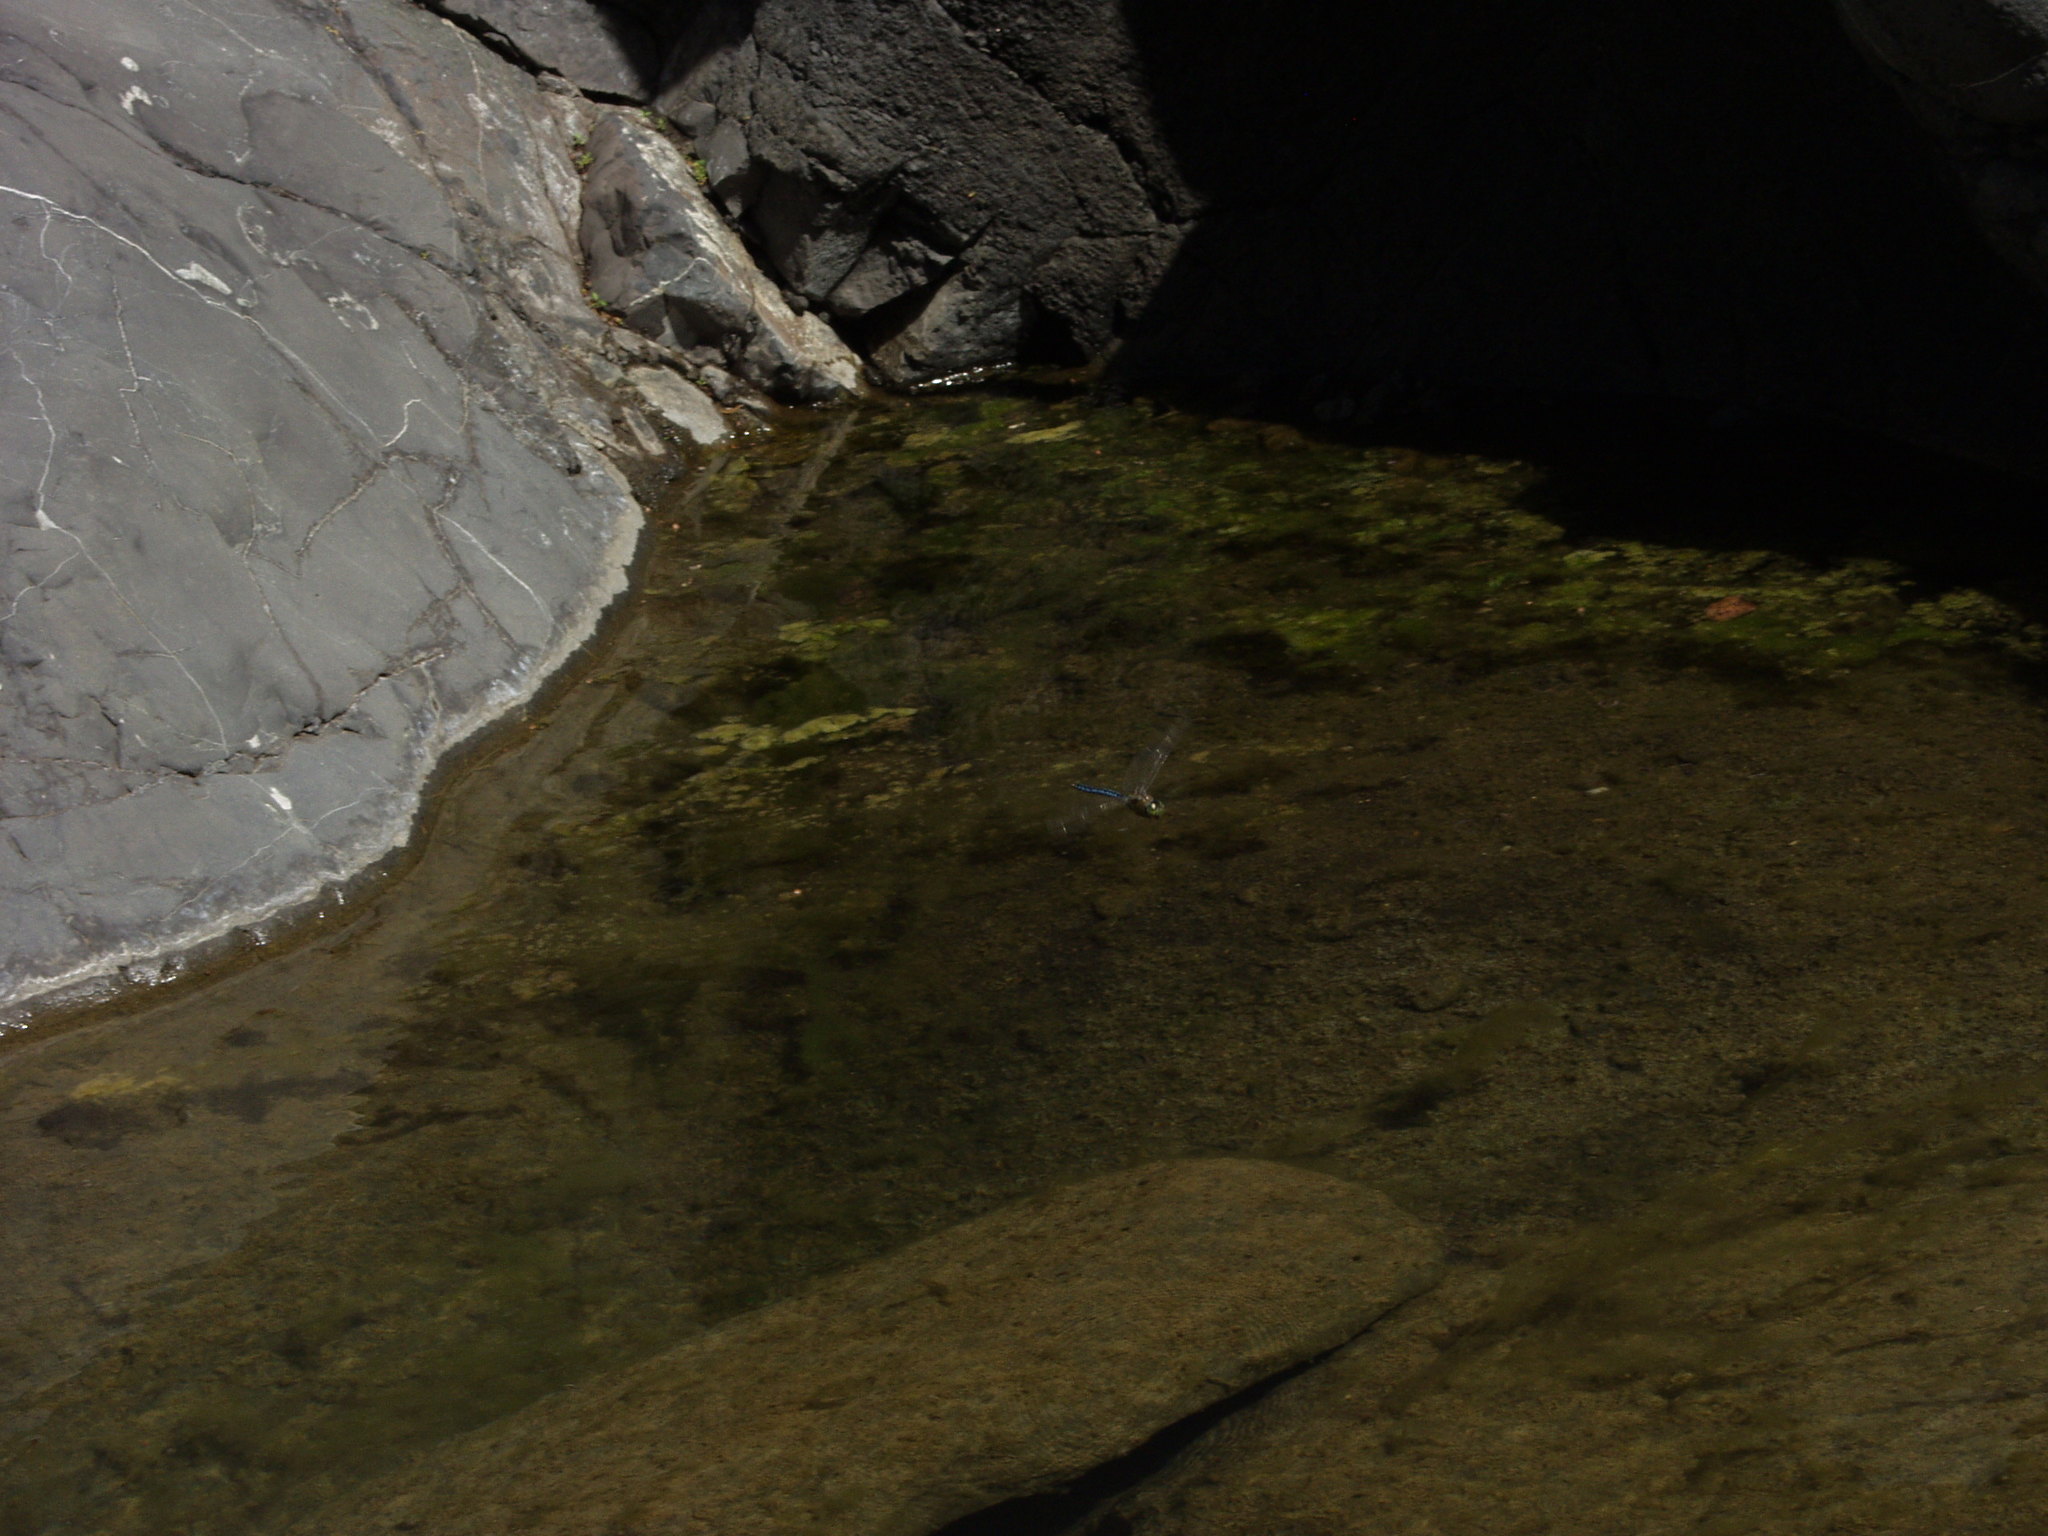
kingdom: Animalia
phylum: Arthropoda
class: Insecta
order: Odonata
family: Aeshnidae
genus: Anax
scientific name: Anax imperator
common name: Emperor dragonfly
